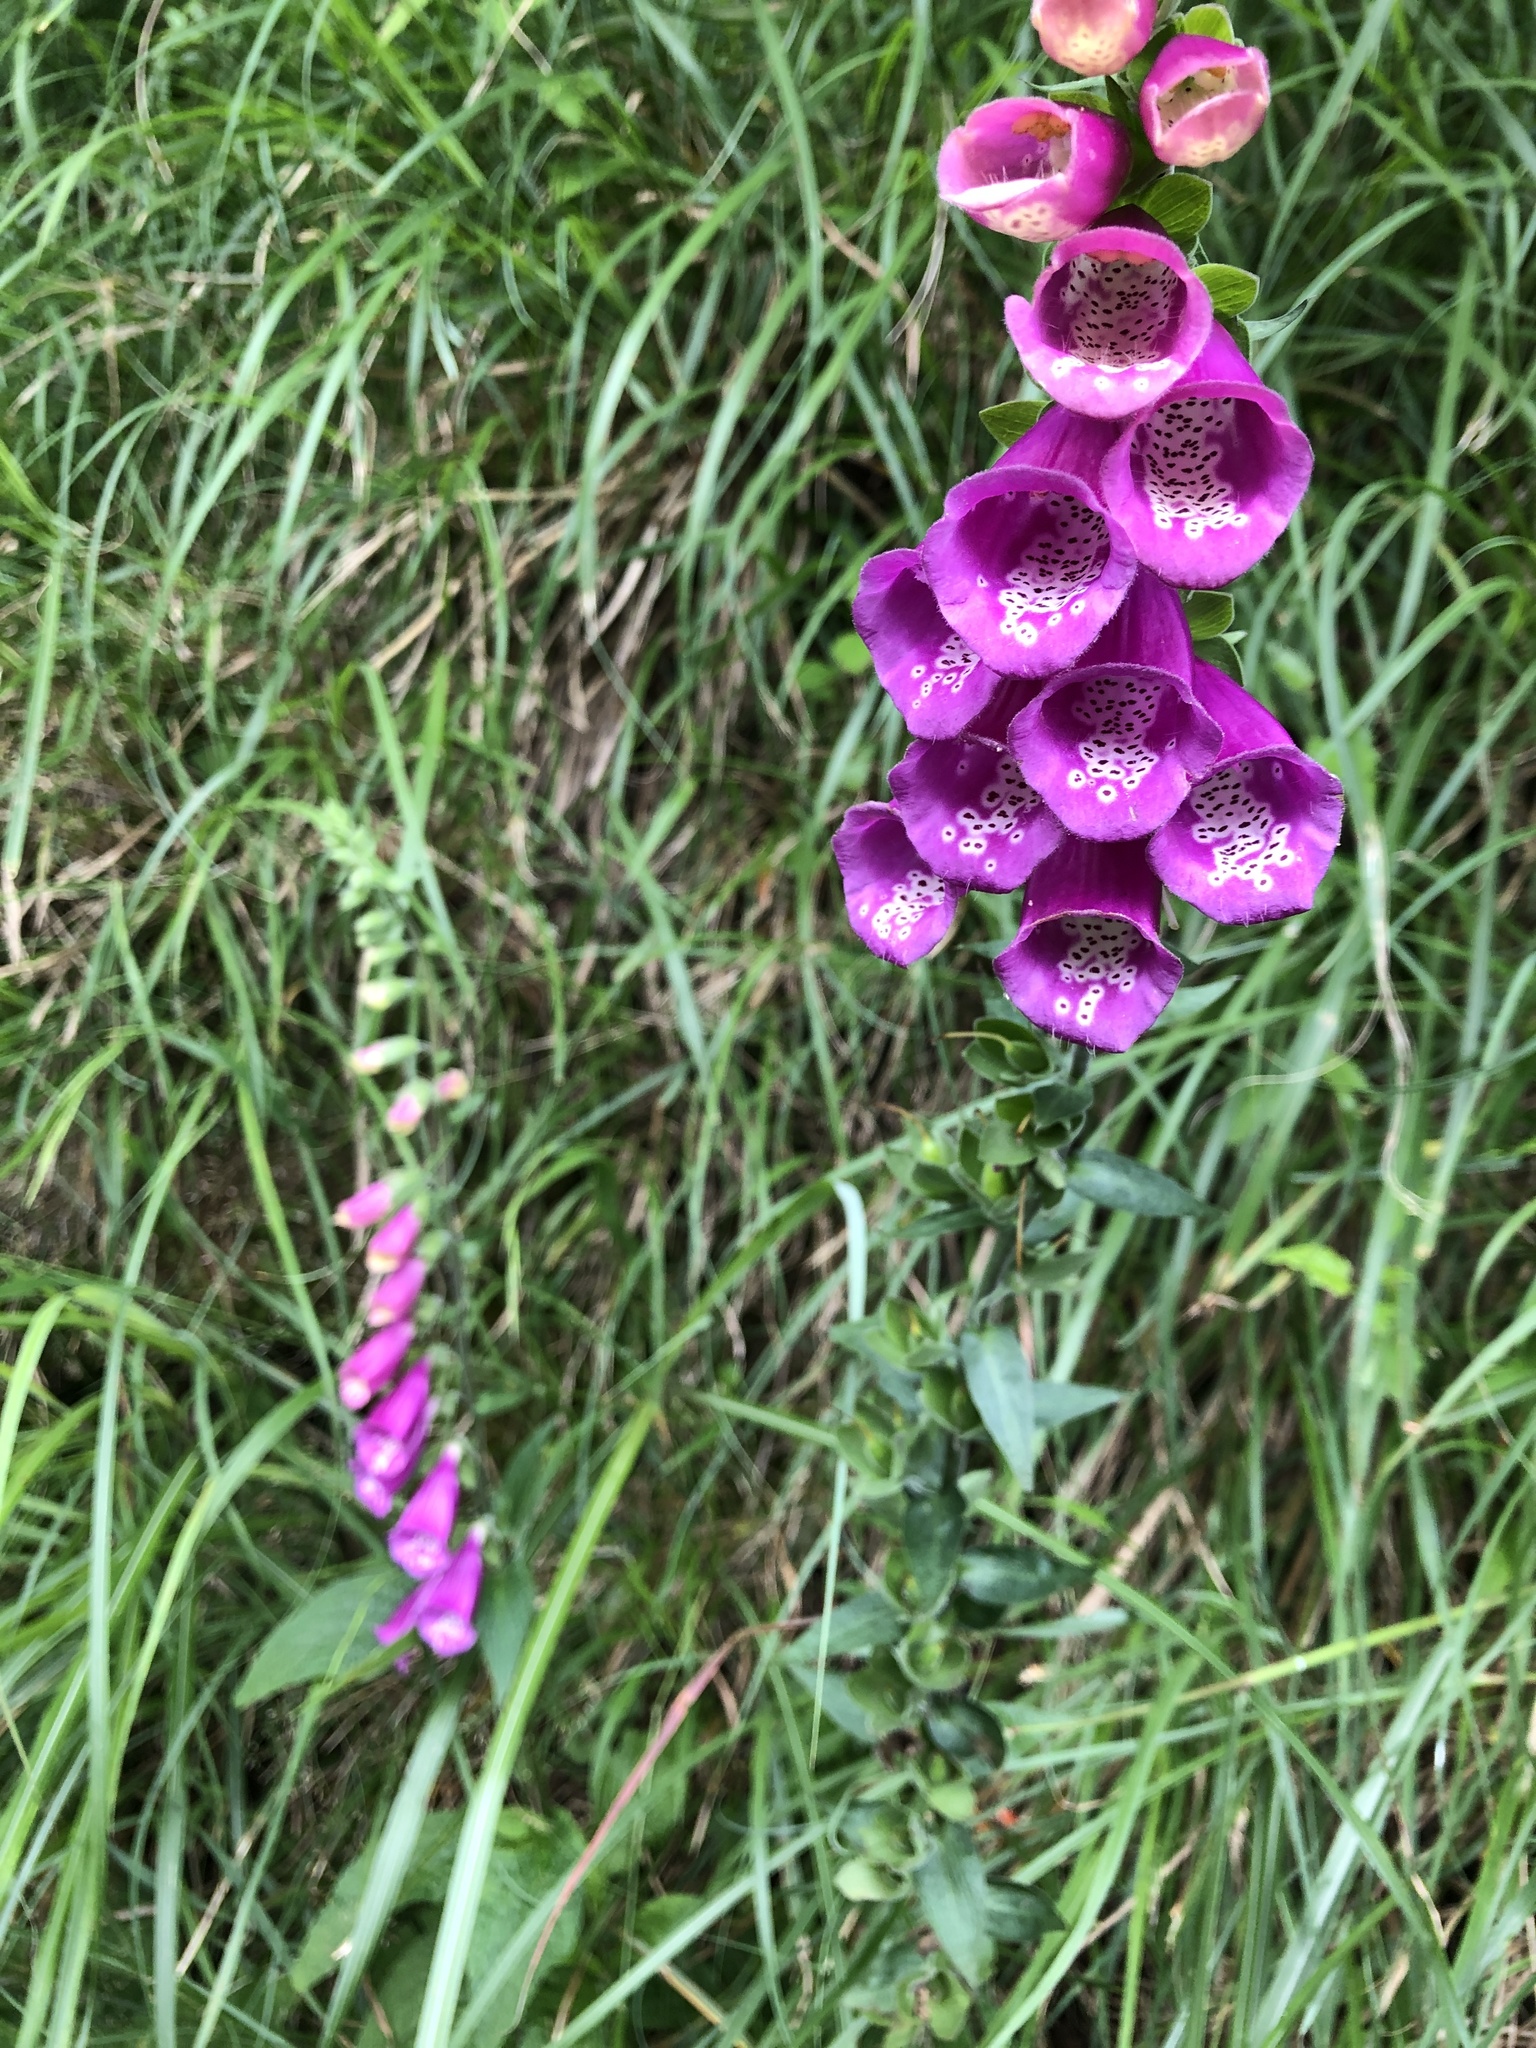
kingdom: Plantae
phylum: Tracheophyta
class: Magnoliopsida
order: Lamiales
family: Plantaginaceae
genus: Digitalis
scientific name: Digitalis purpurea
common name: Foxglove
